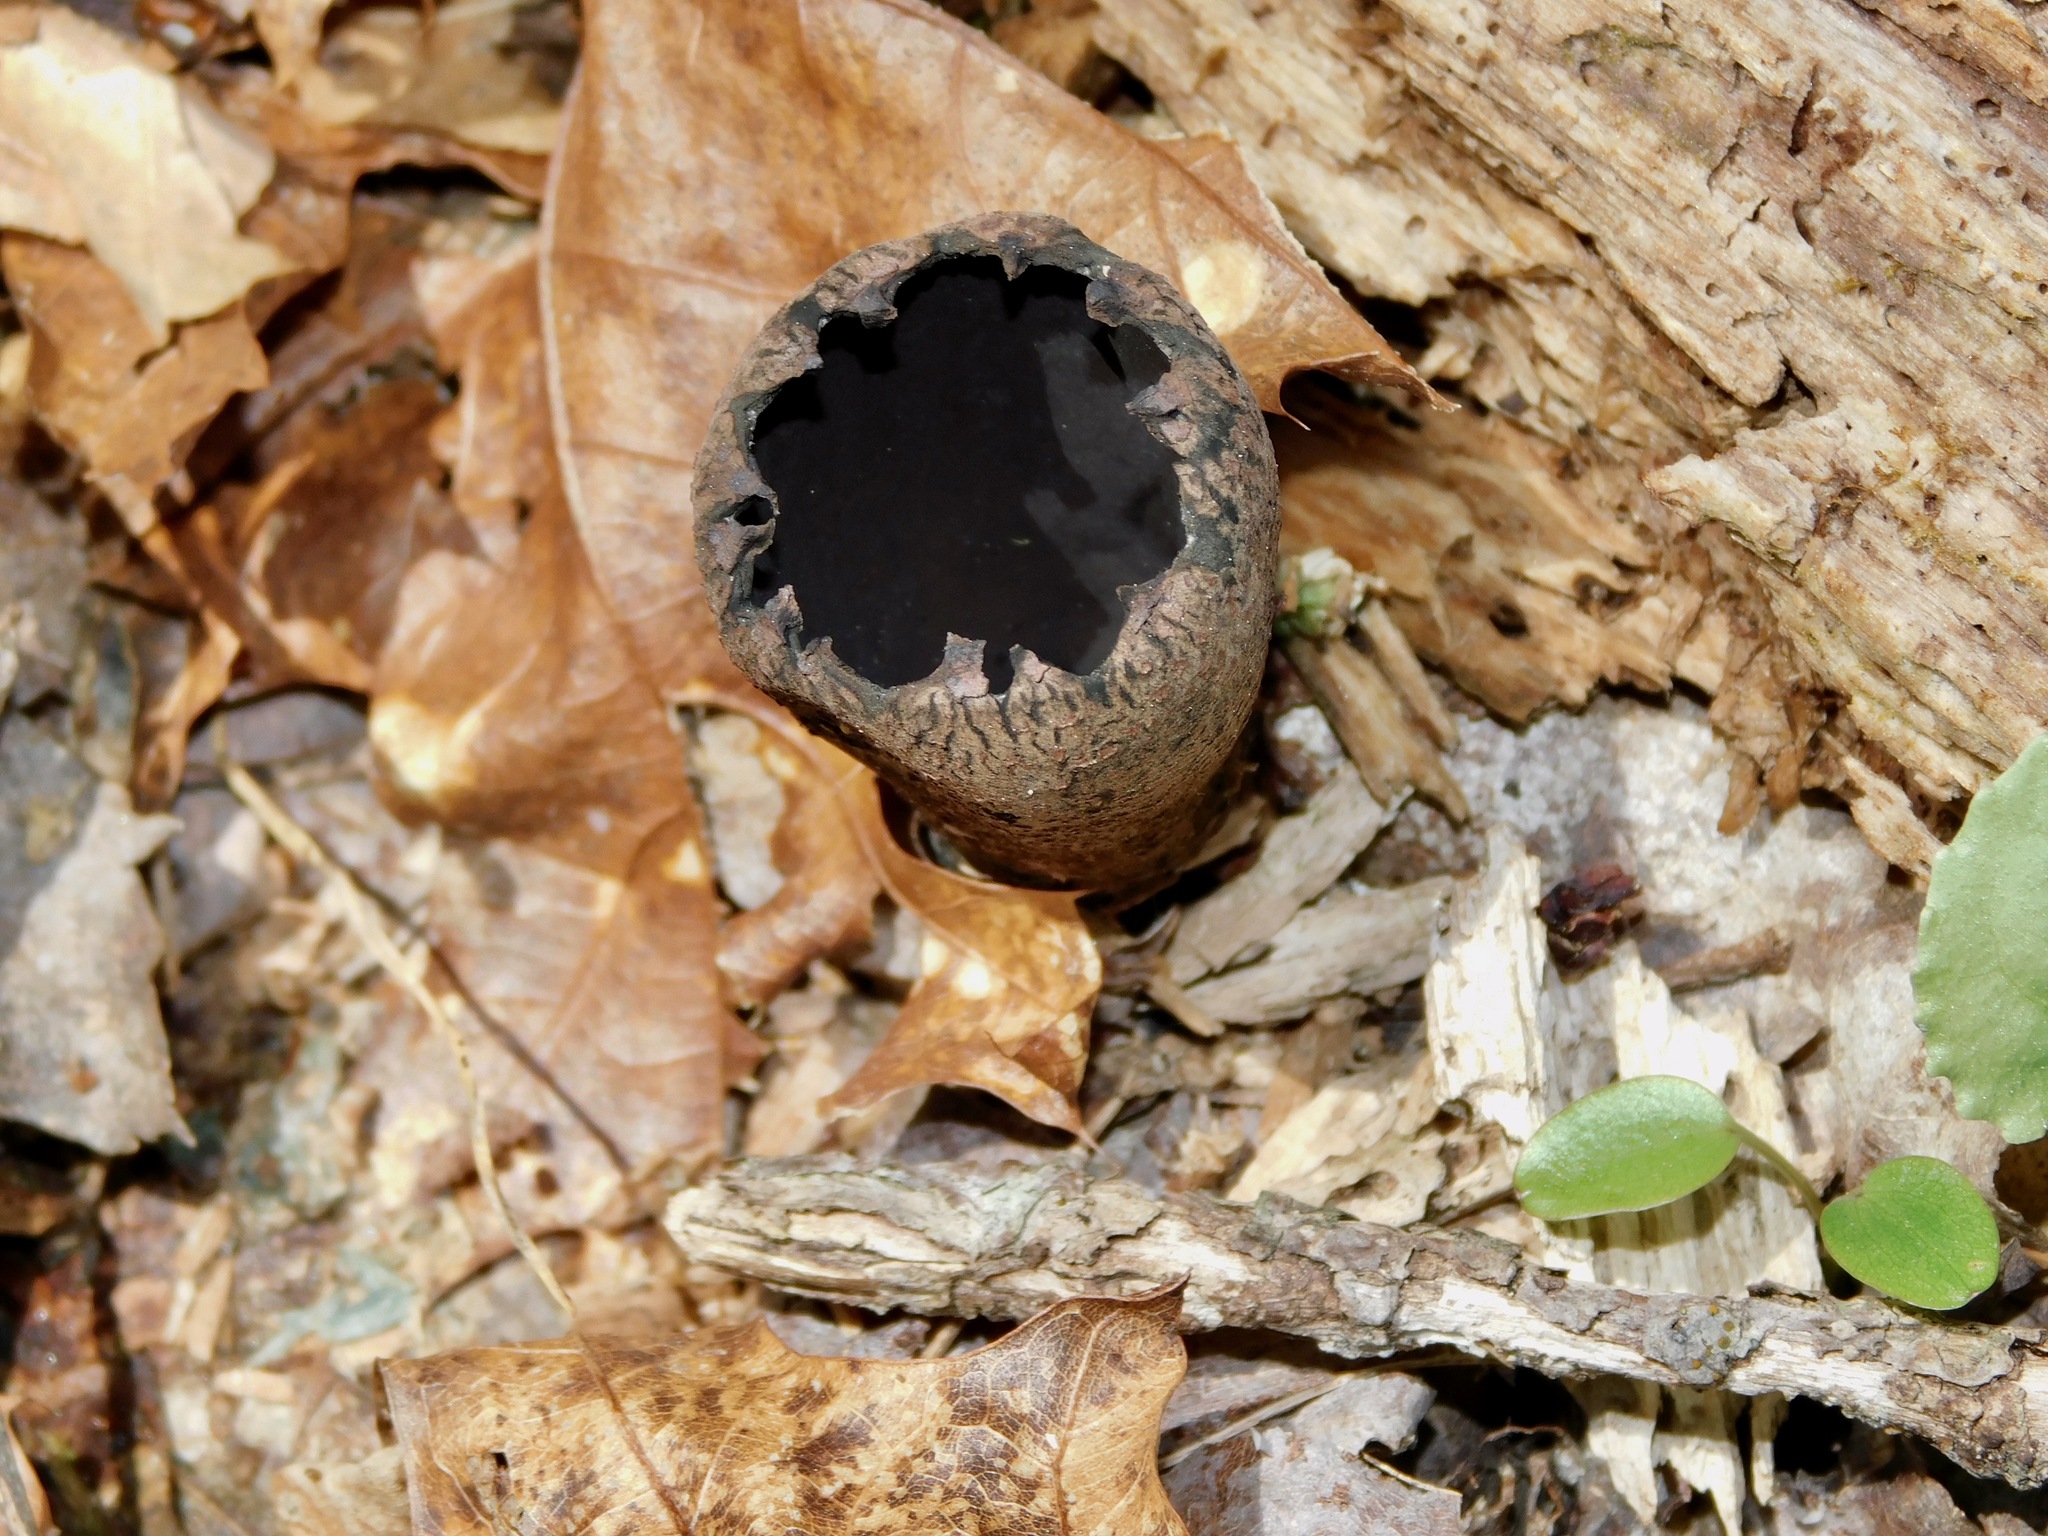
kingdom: Fungi
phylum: Ascomycota
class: Pezizomycetes
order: Pezizales
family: Sarcosomataceae
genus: Urnula
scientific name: Urnula craterium
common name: Devil's urn
